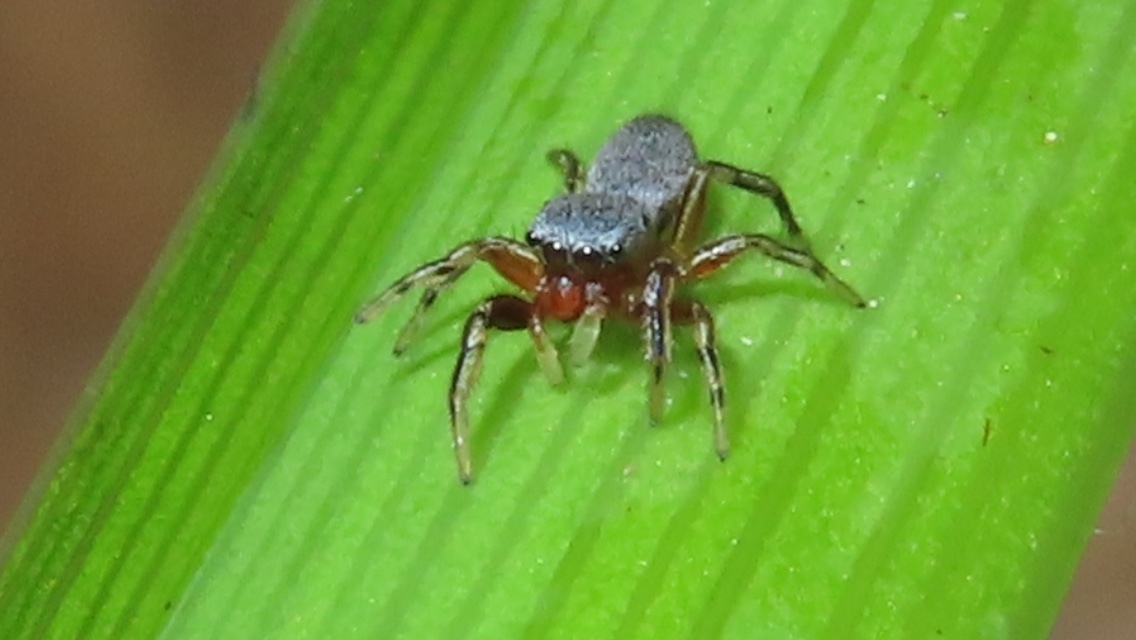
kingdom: Animalia
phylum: Arthropoda
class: Arachnida
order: Araneae
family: Salticidae
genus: Tutelina
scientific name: Tutelina similis
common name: Thick-spined jumping spider
